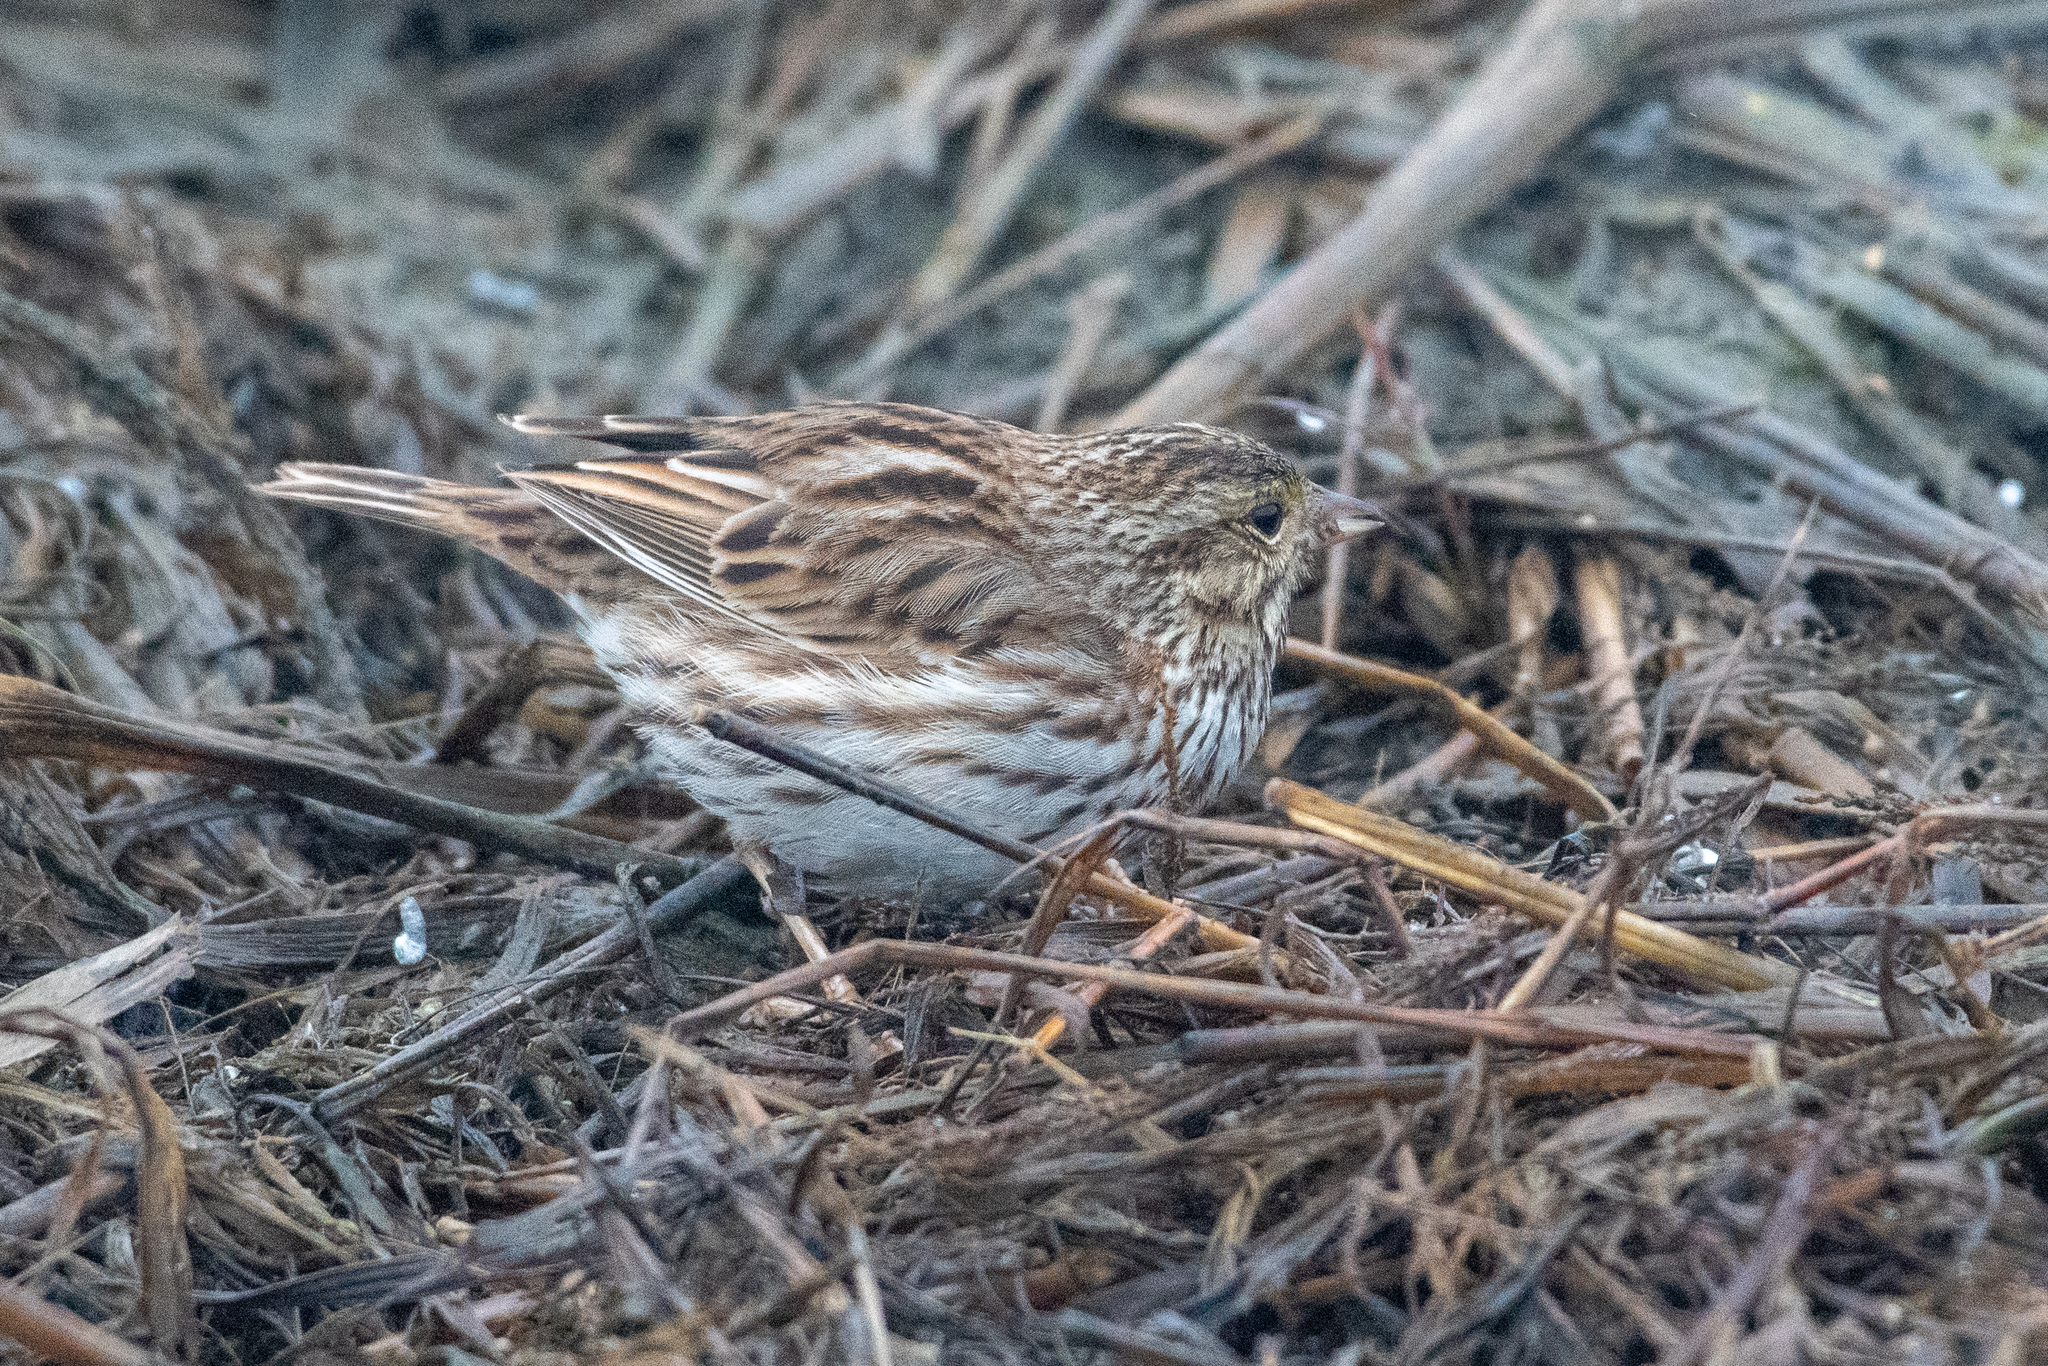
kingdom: Animalia
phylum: Chordata
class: Aves
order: Passeriformes
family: Passerellidae
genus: Passerculus
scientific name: Passerculus sandwichensis
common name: Savannah sparrow
